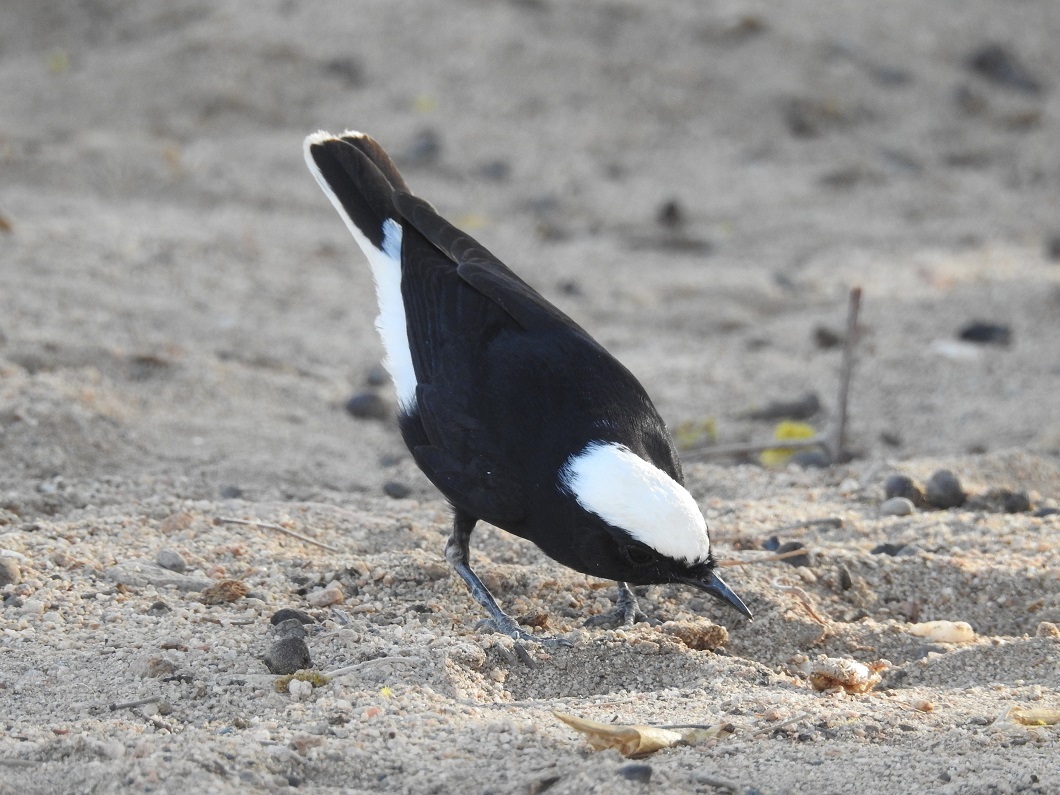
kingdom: Animalia
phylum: Chordata
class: Aves
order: Passeriformes
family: Muscicapidae
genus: Oenanthe
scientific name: Oenanthe leucopyga
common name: White-crowned wheatear
